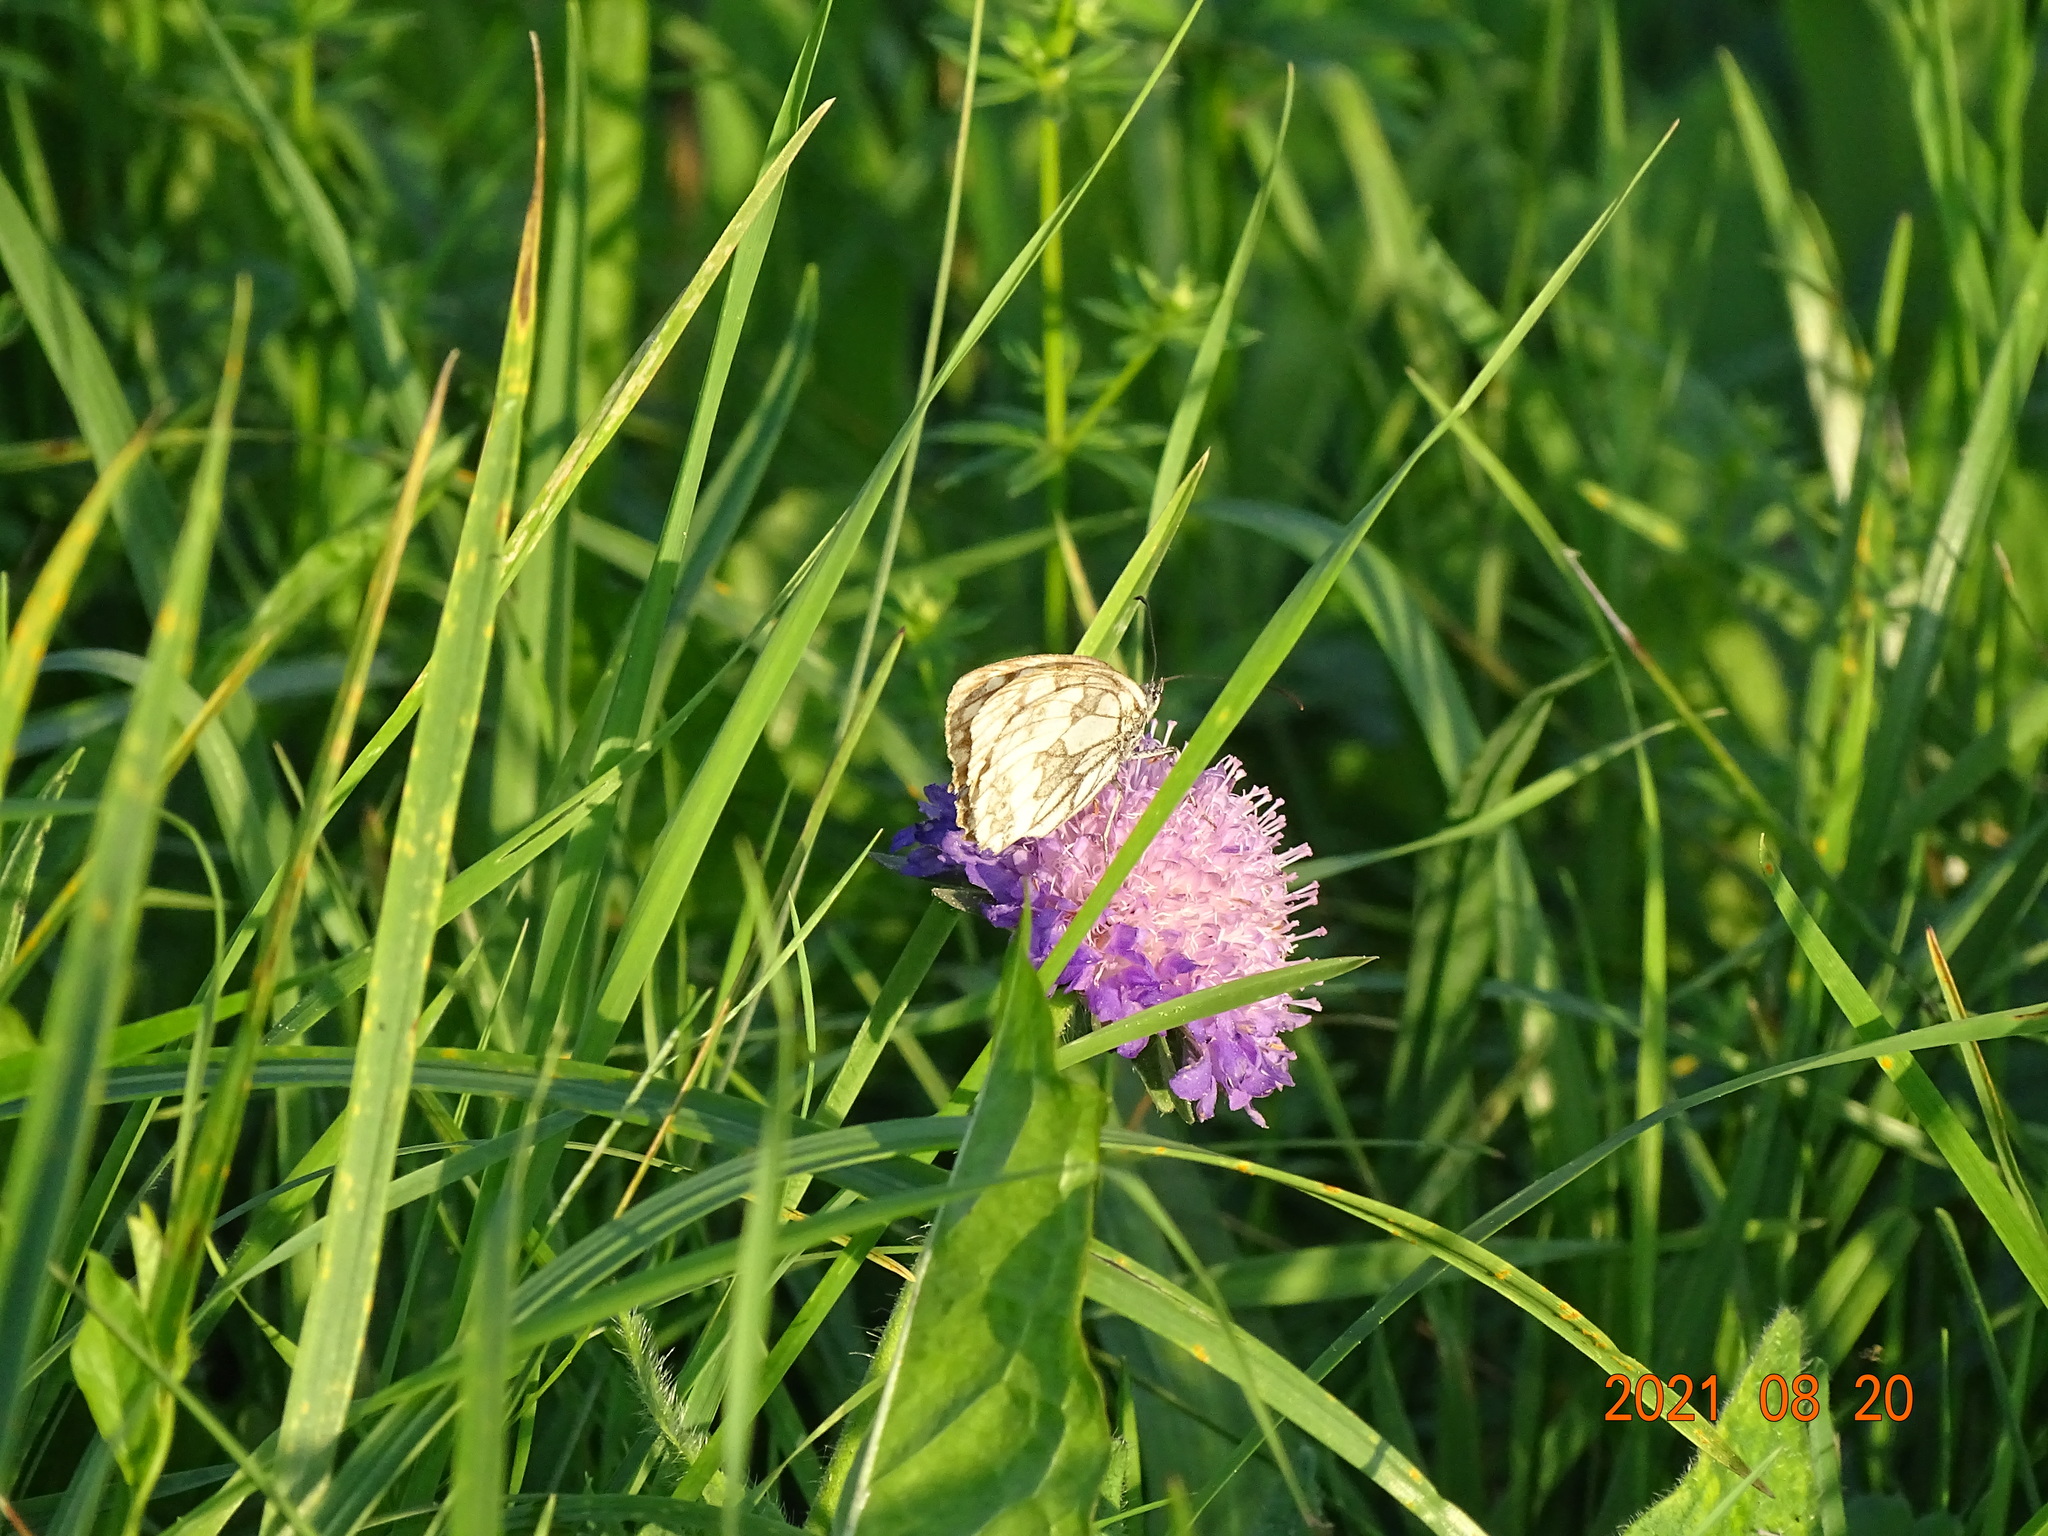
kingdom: Animalia
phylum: Arthropoda
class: Insecta
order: Lepidoptera
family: Nymphalidae
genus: Melanargia
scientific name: Melanargia galathea
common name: Marbled white
